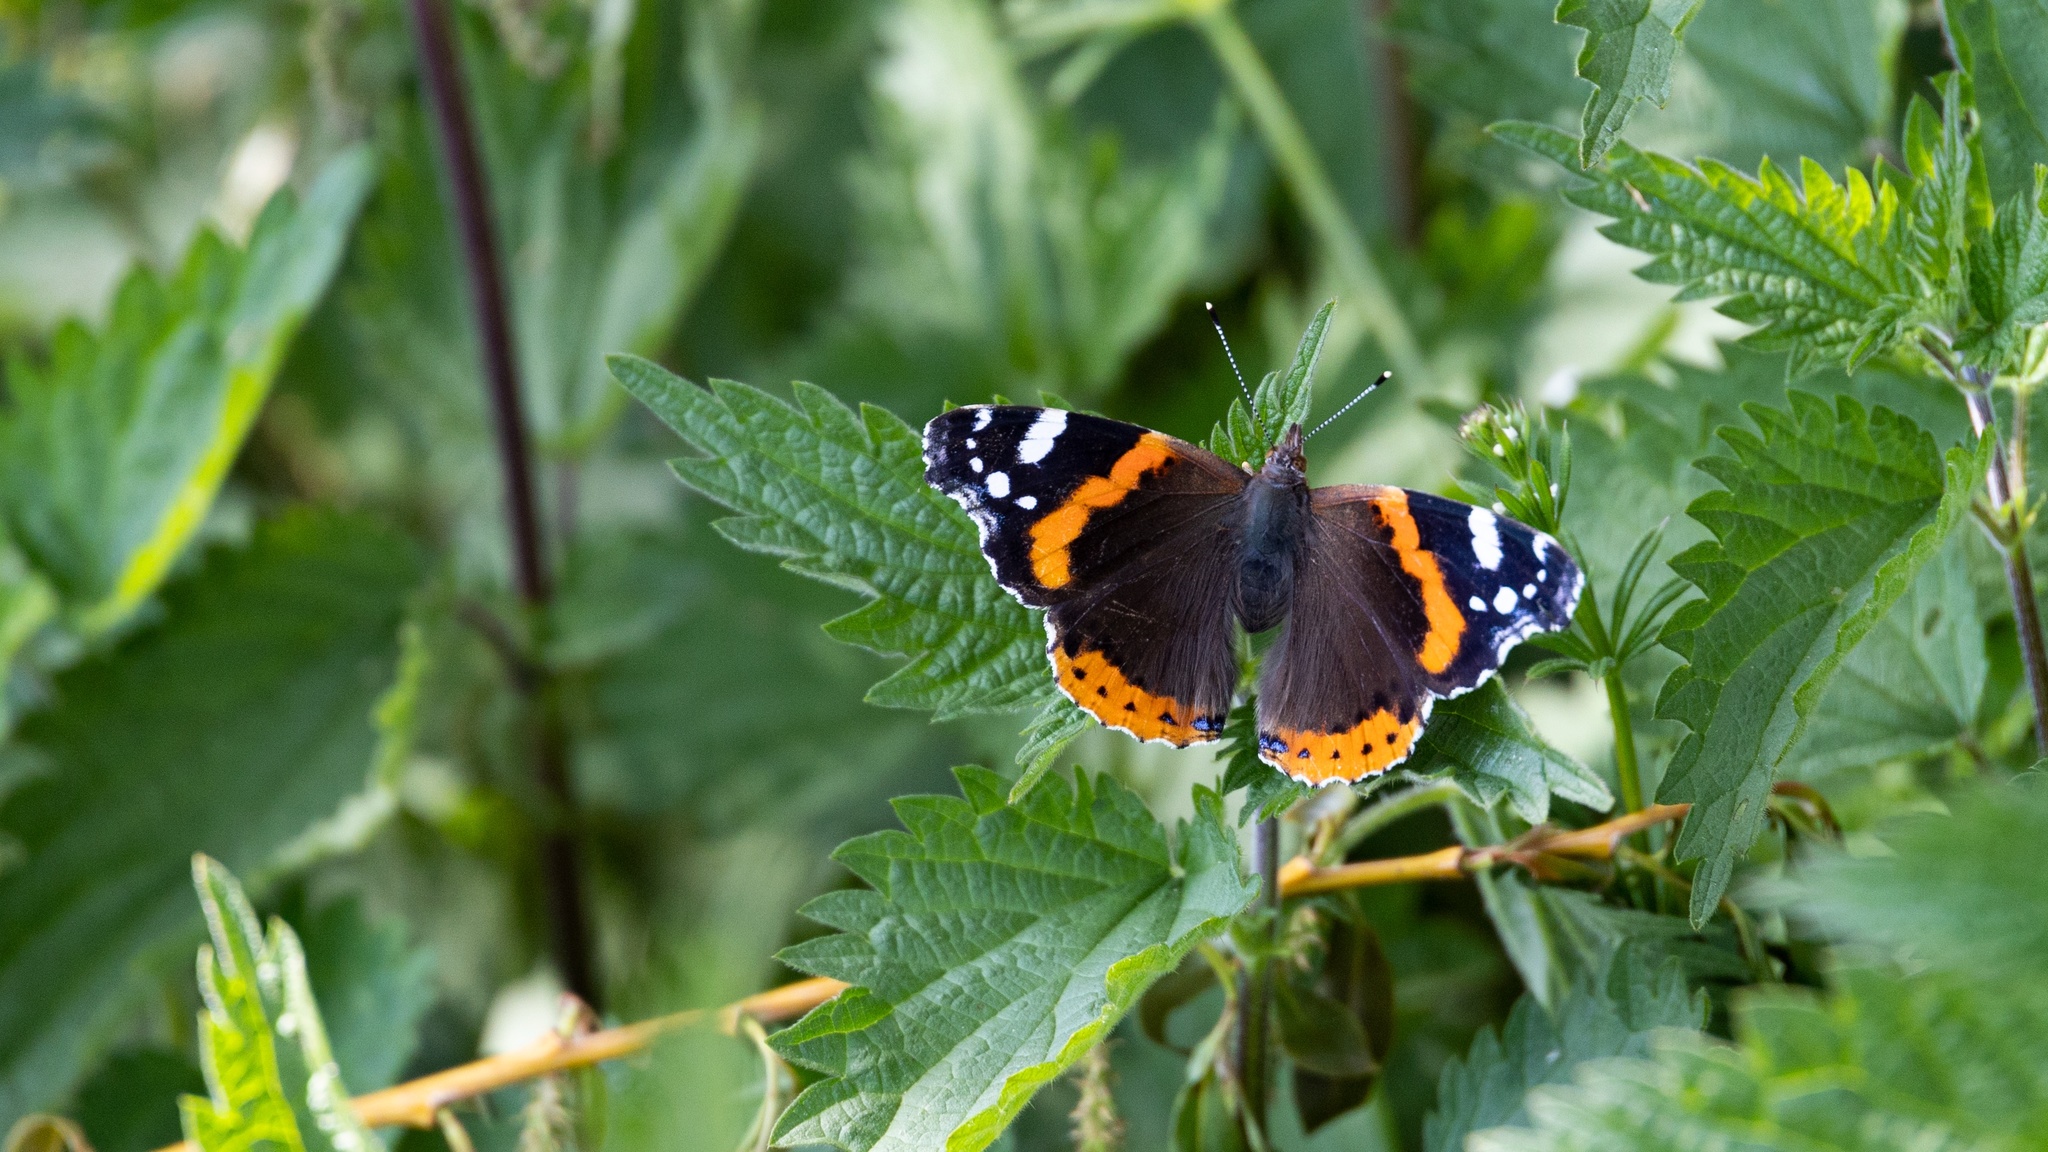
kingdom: Animalia
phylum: Arthropoda
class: Insecta
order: Lepidoptera
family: Nymphalidae
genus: Vanessa
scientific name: Vanessa atalanta
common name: Red admiral
